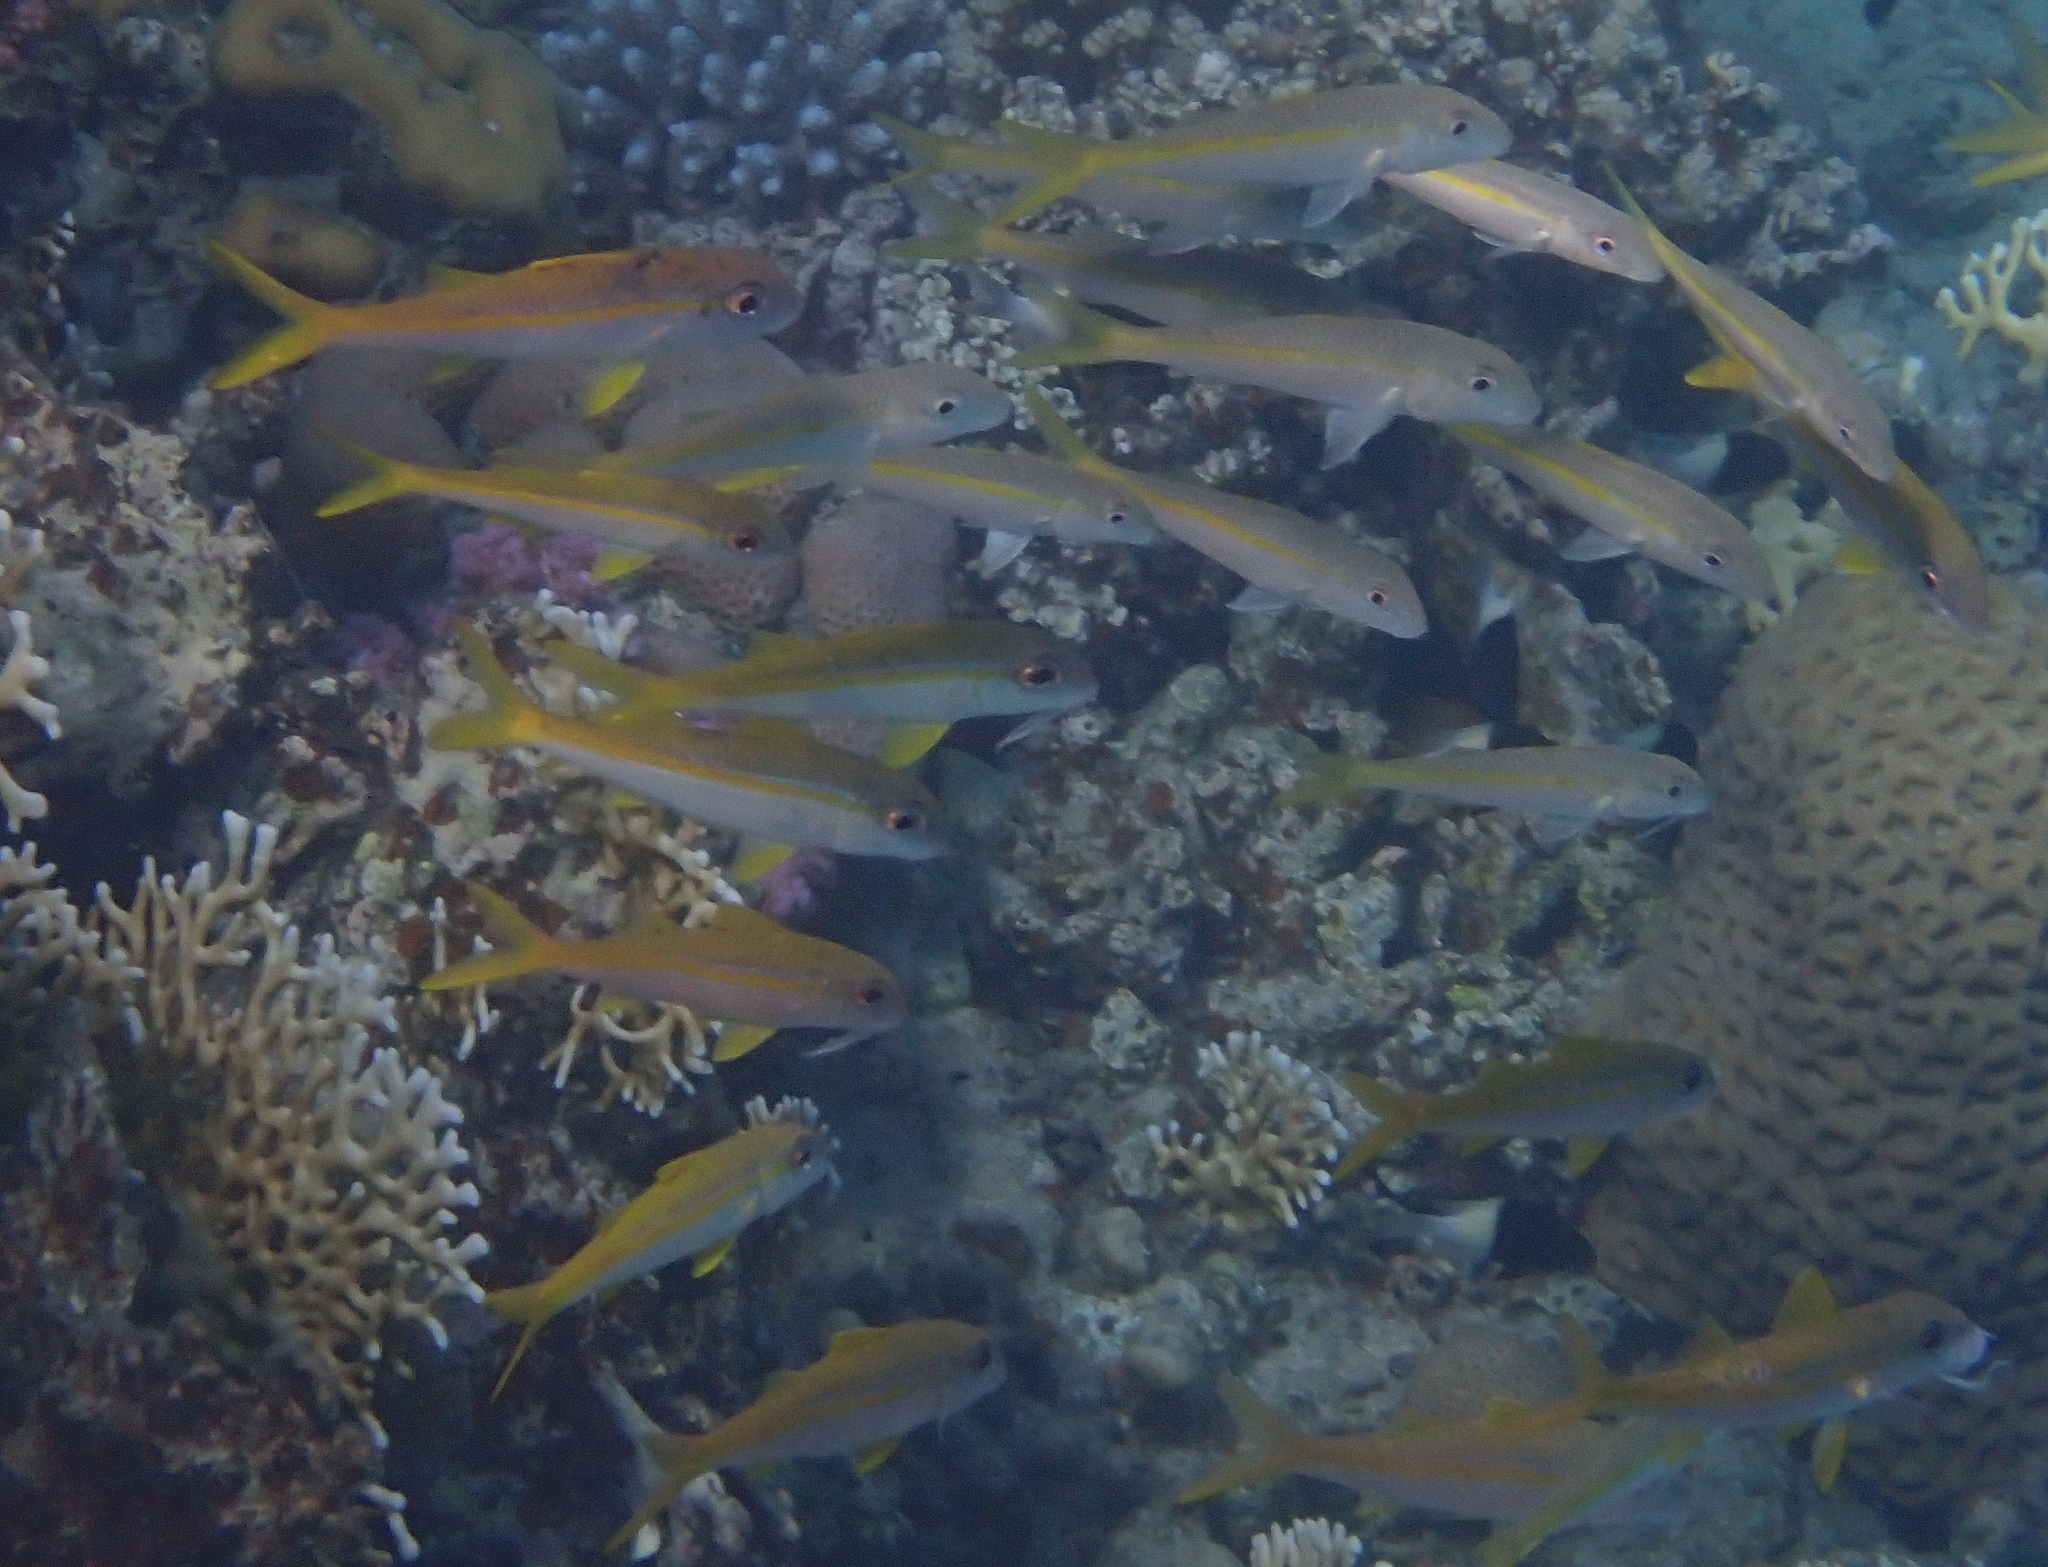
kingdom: Animalia
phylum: Chordata
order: Perciformes
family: Mullidae
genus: Mulloidichthys
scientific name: Mulloidichthys vanicolensis
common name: Yellowfin goatfish
